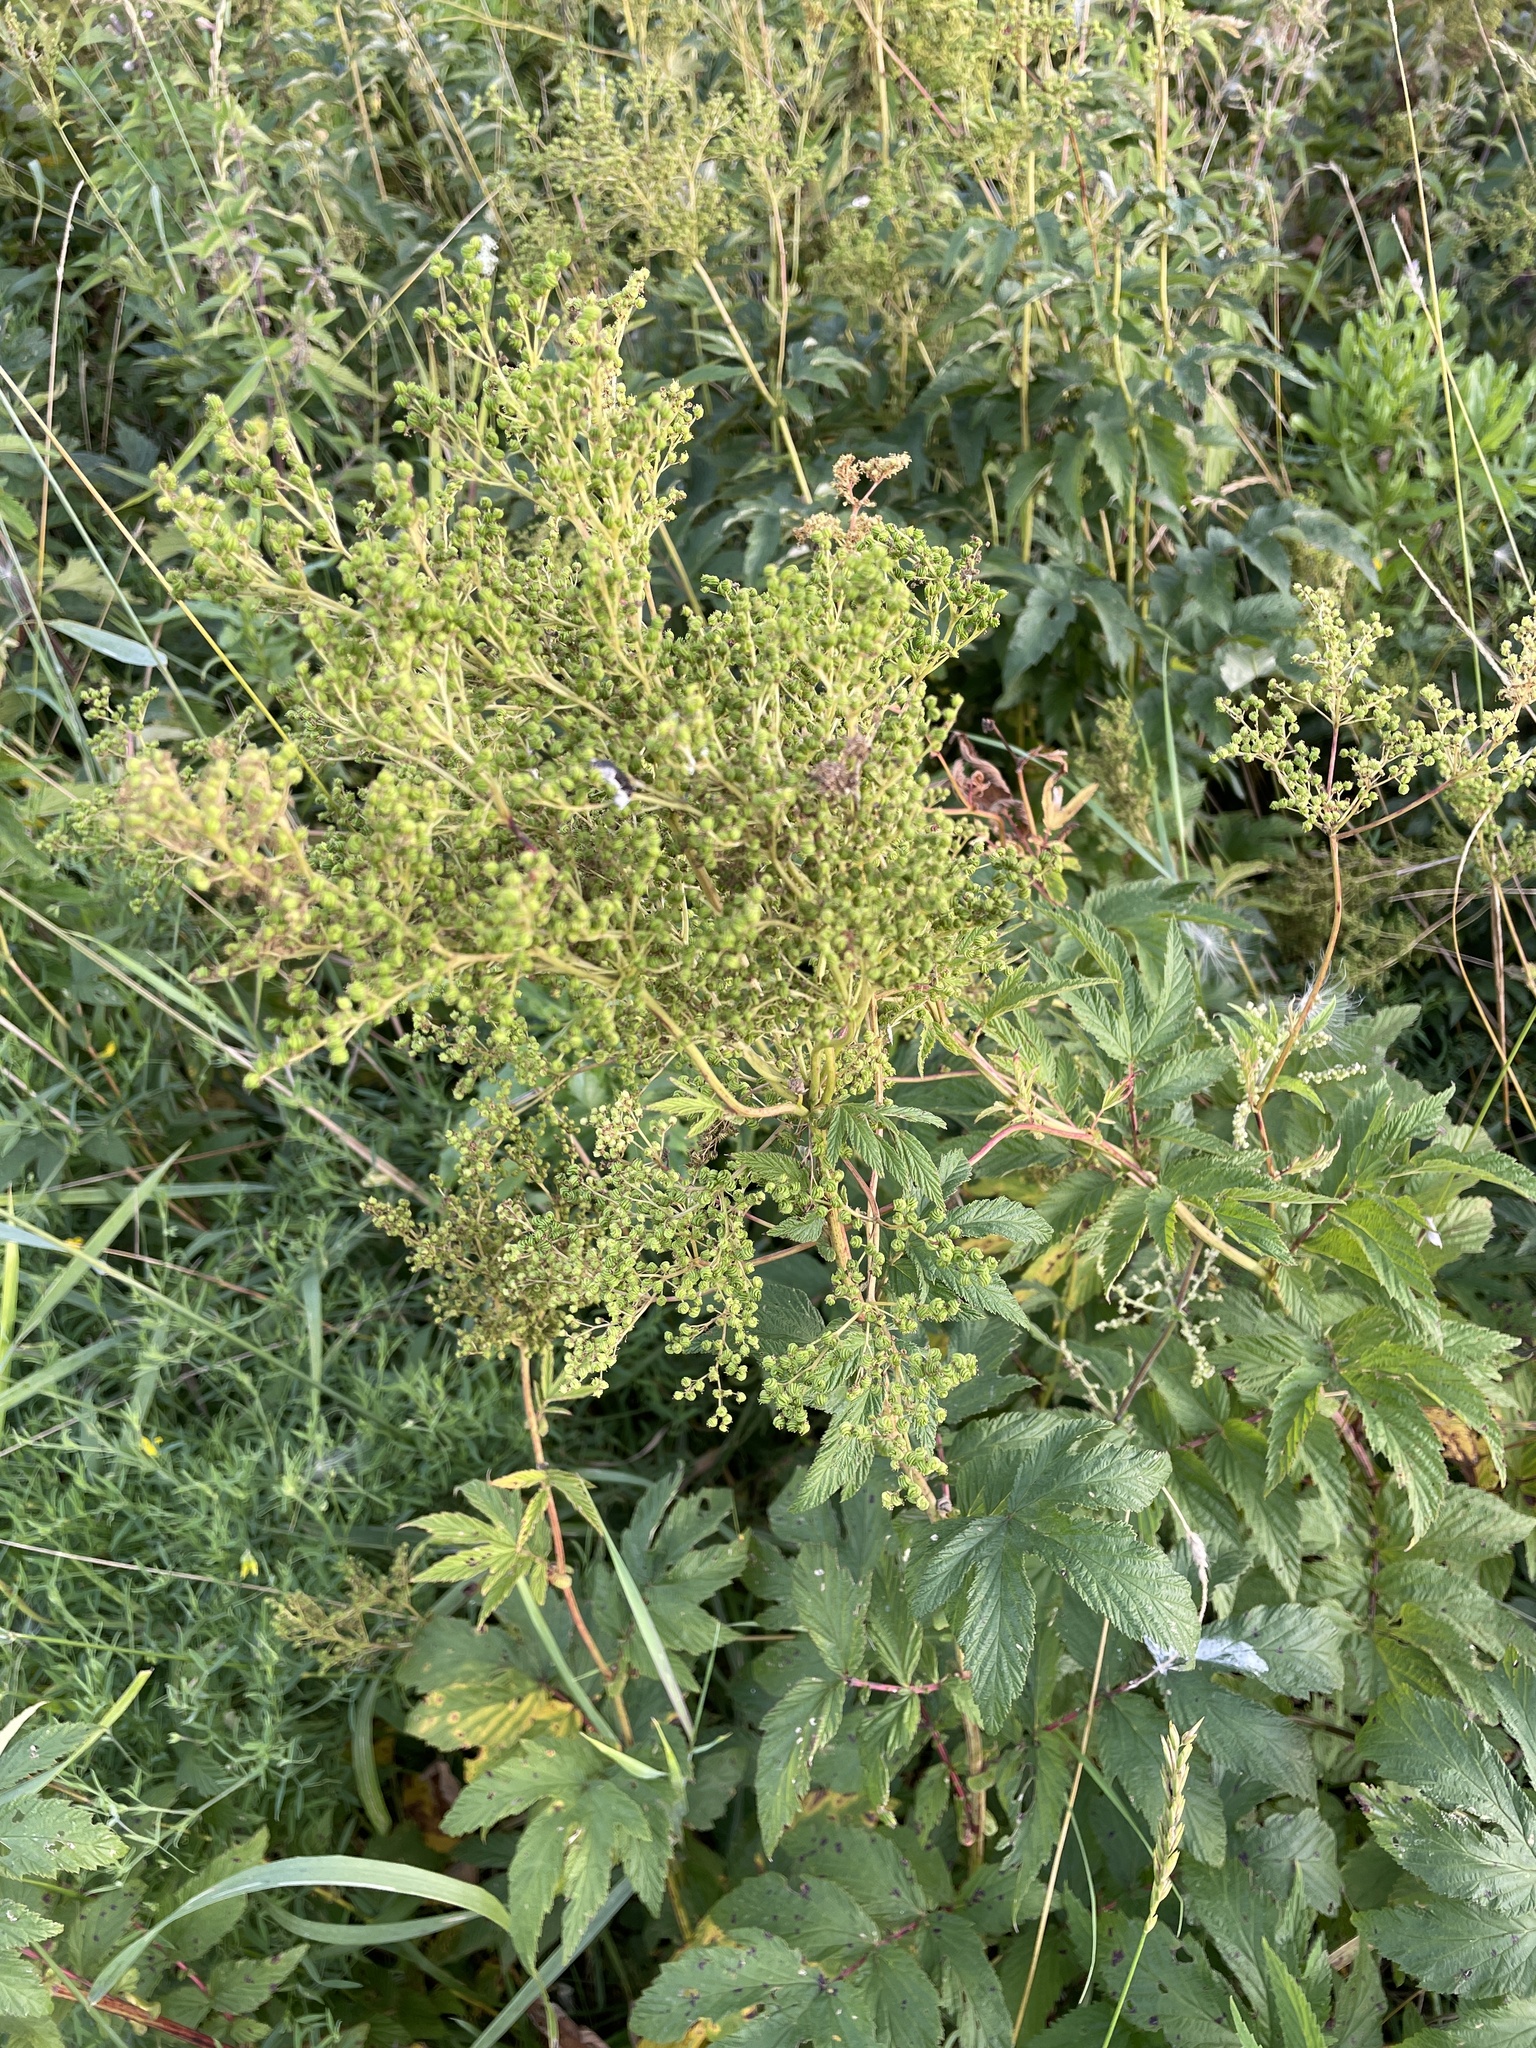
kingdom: Plantae
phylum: Tracheophyta
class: Magnoliopsida
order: Rosales
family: Rosaceae
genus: Filipendula
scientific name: Filipendula ulmaria
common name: Meadowsweet
